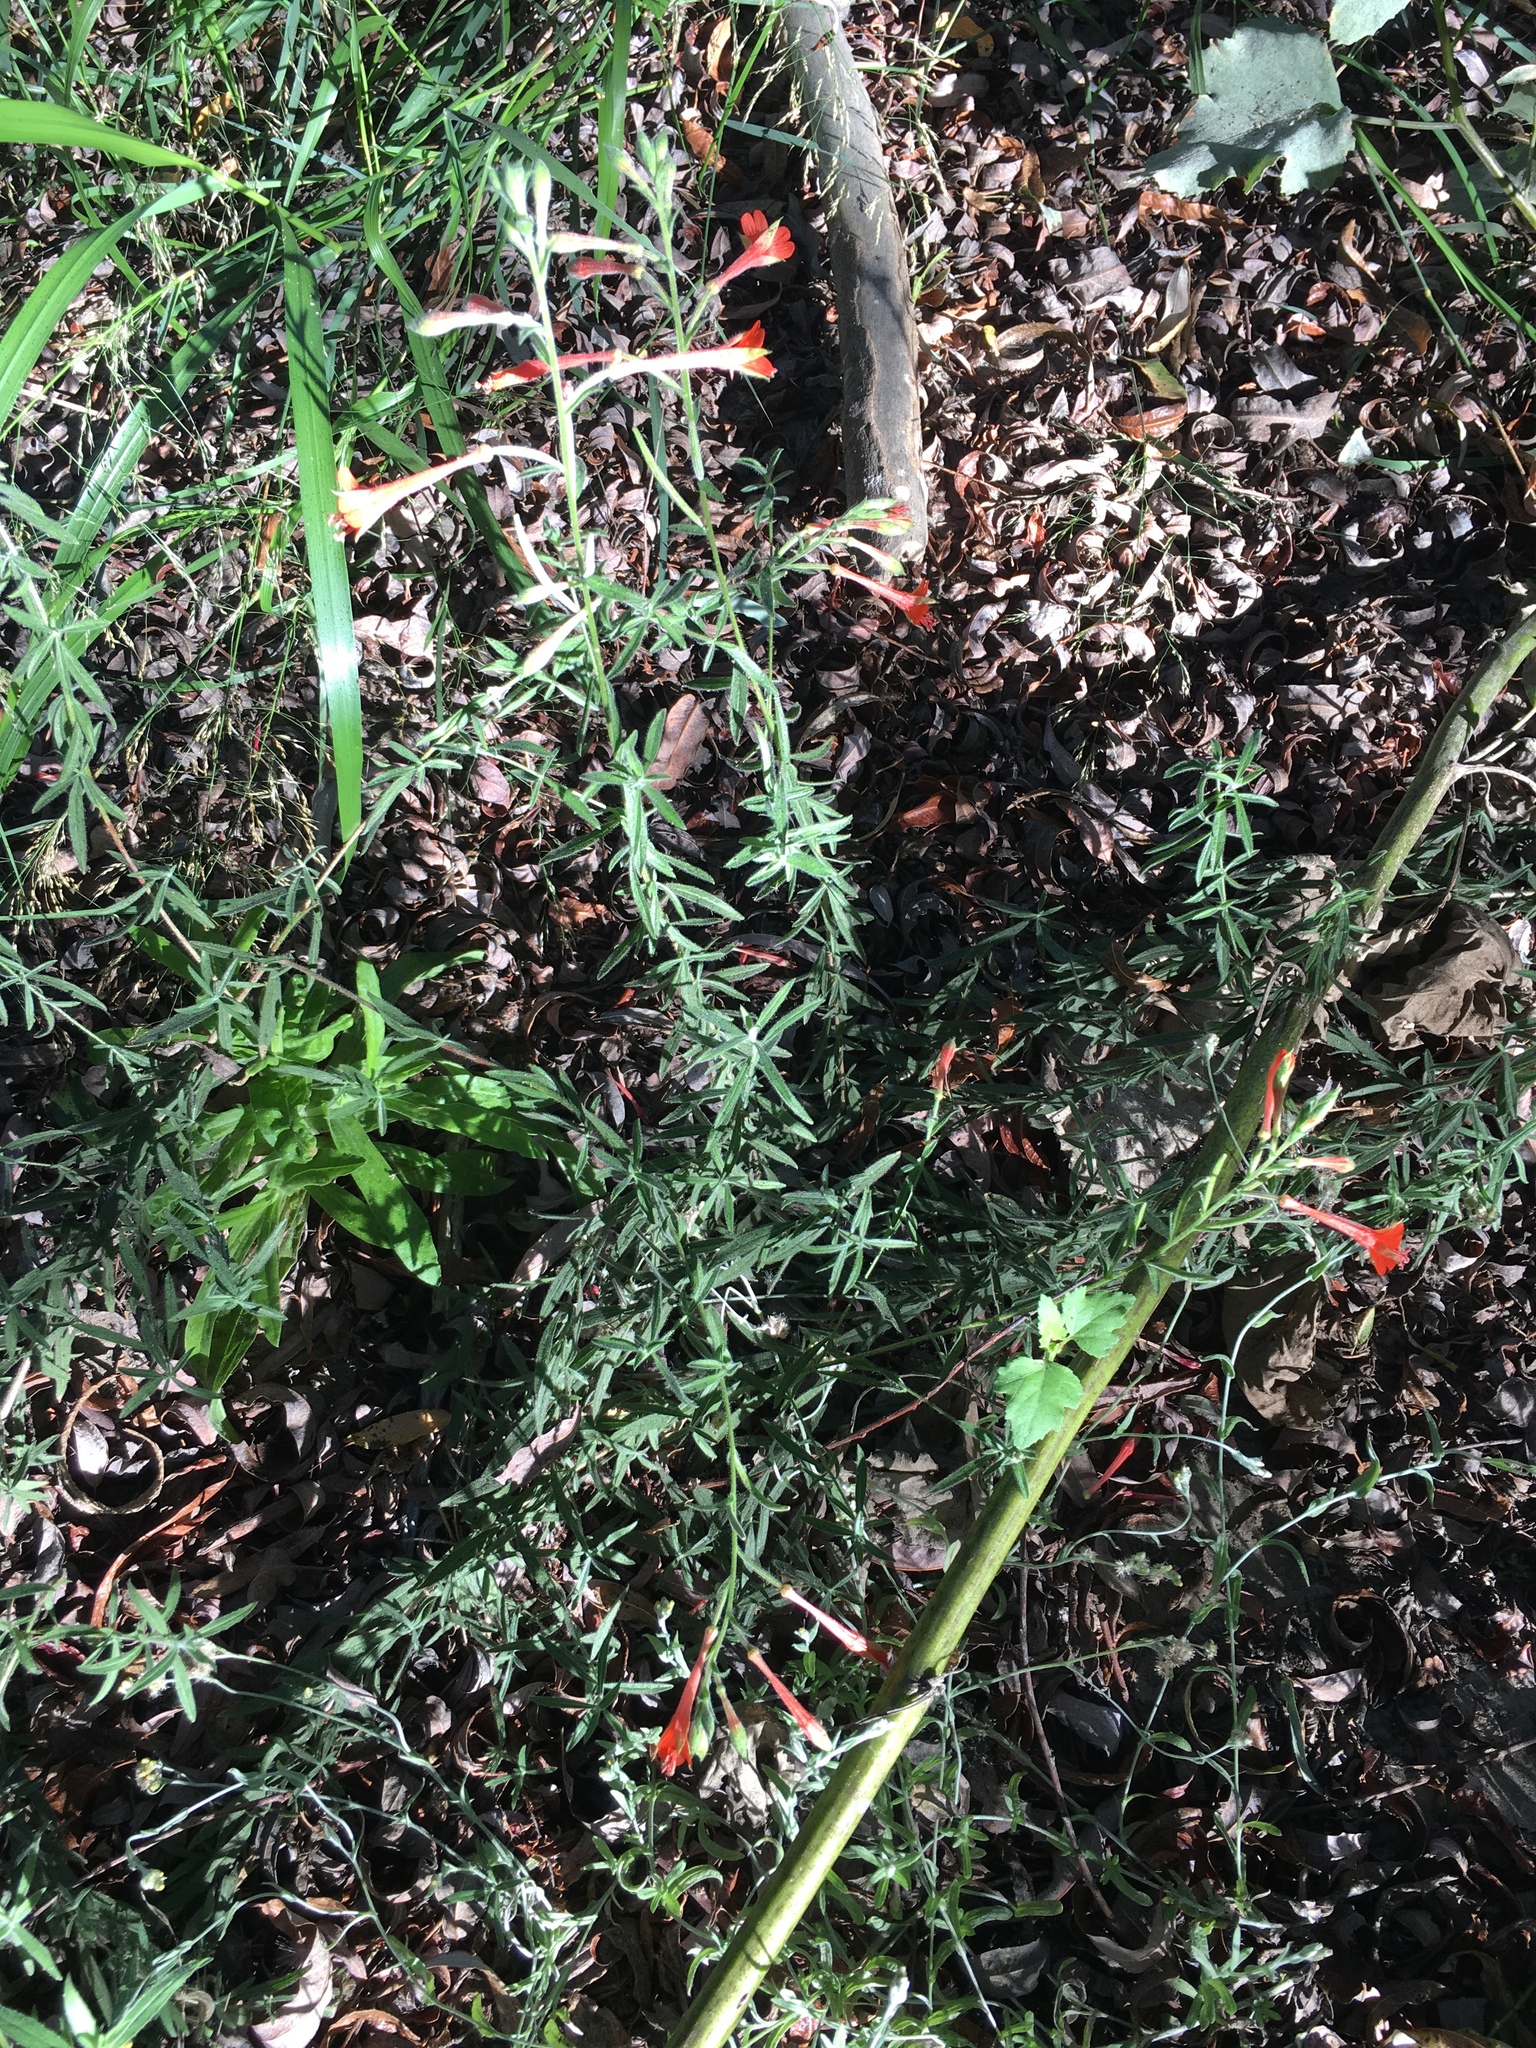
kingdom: Plantae
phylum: Tracheophyta
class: Magnoliopsida
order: Myrtales
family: Onagraceae
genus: Epilobium
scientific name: Epilobium canum
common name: California-fuchsia
